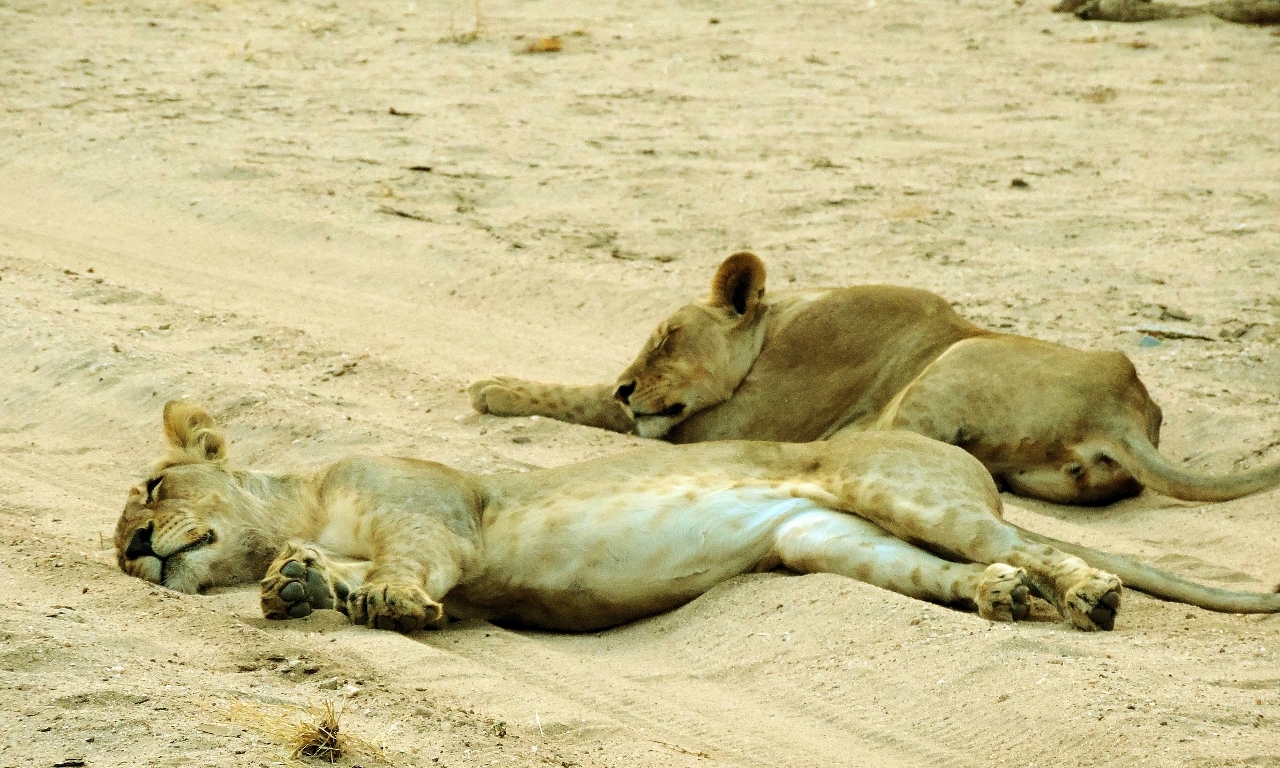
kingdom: Animalia
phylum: Chordata
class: Mammalia
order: Carnivora
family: Felidae
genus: Panthera
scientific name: Panthera leo
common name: Lion
